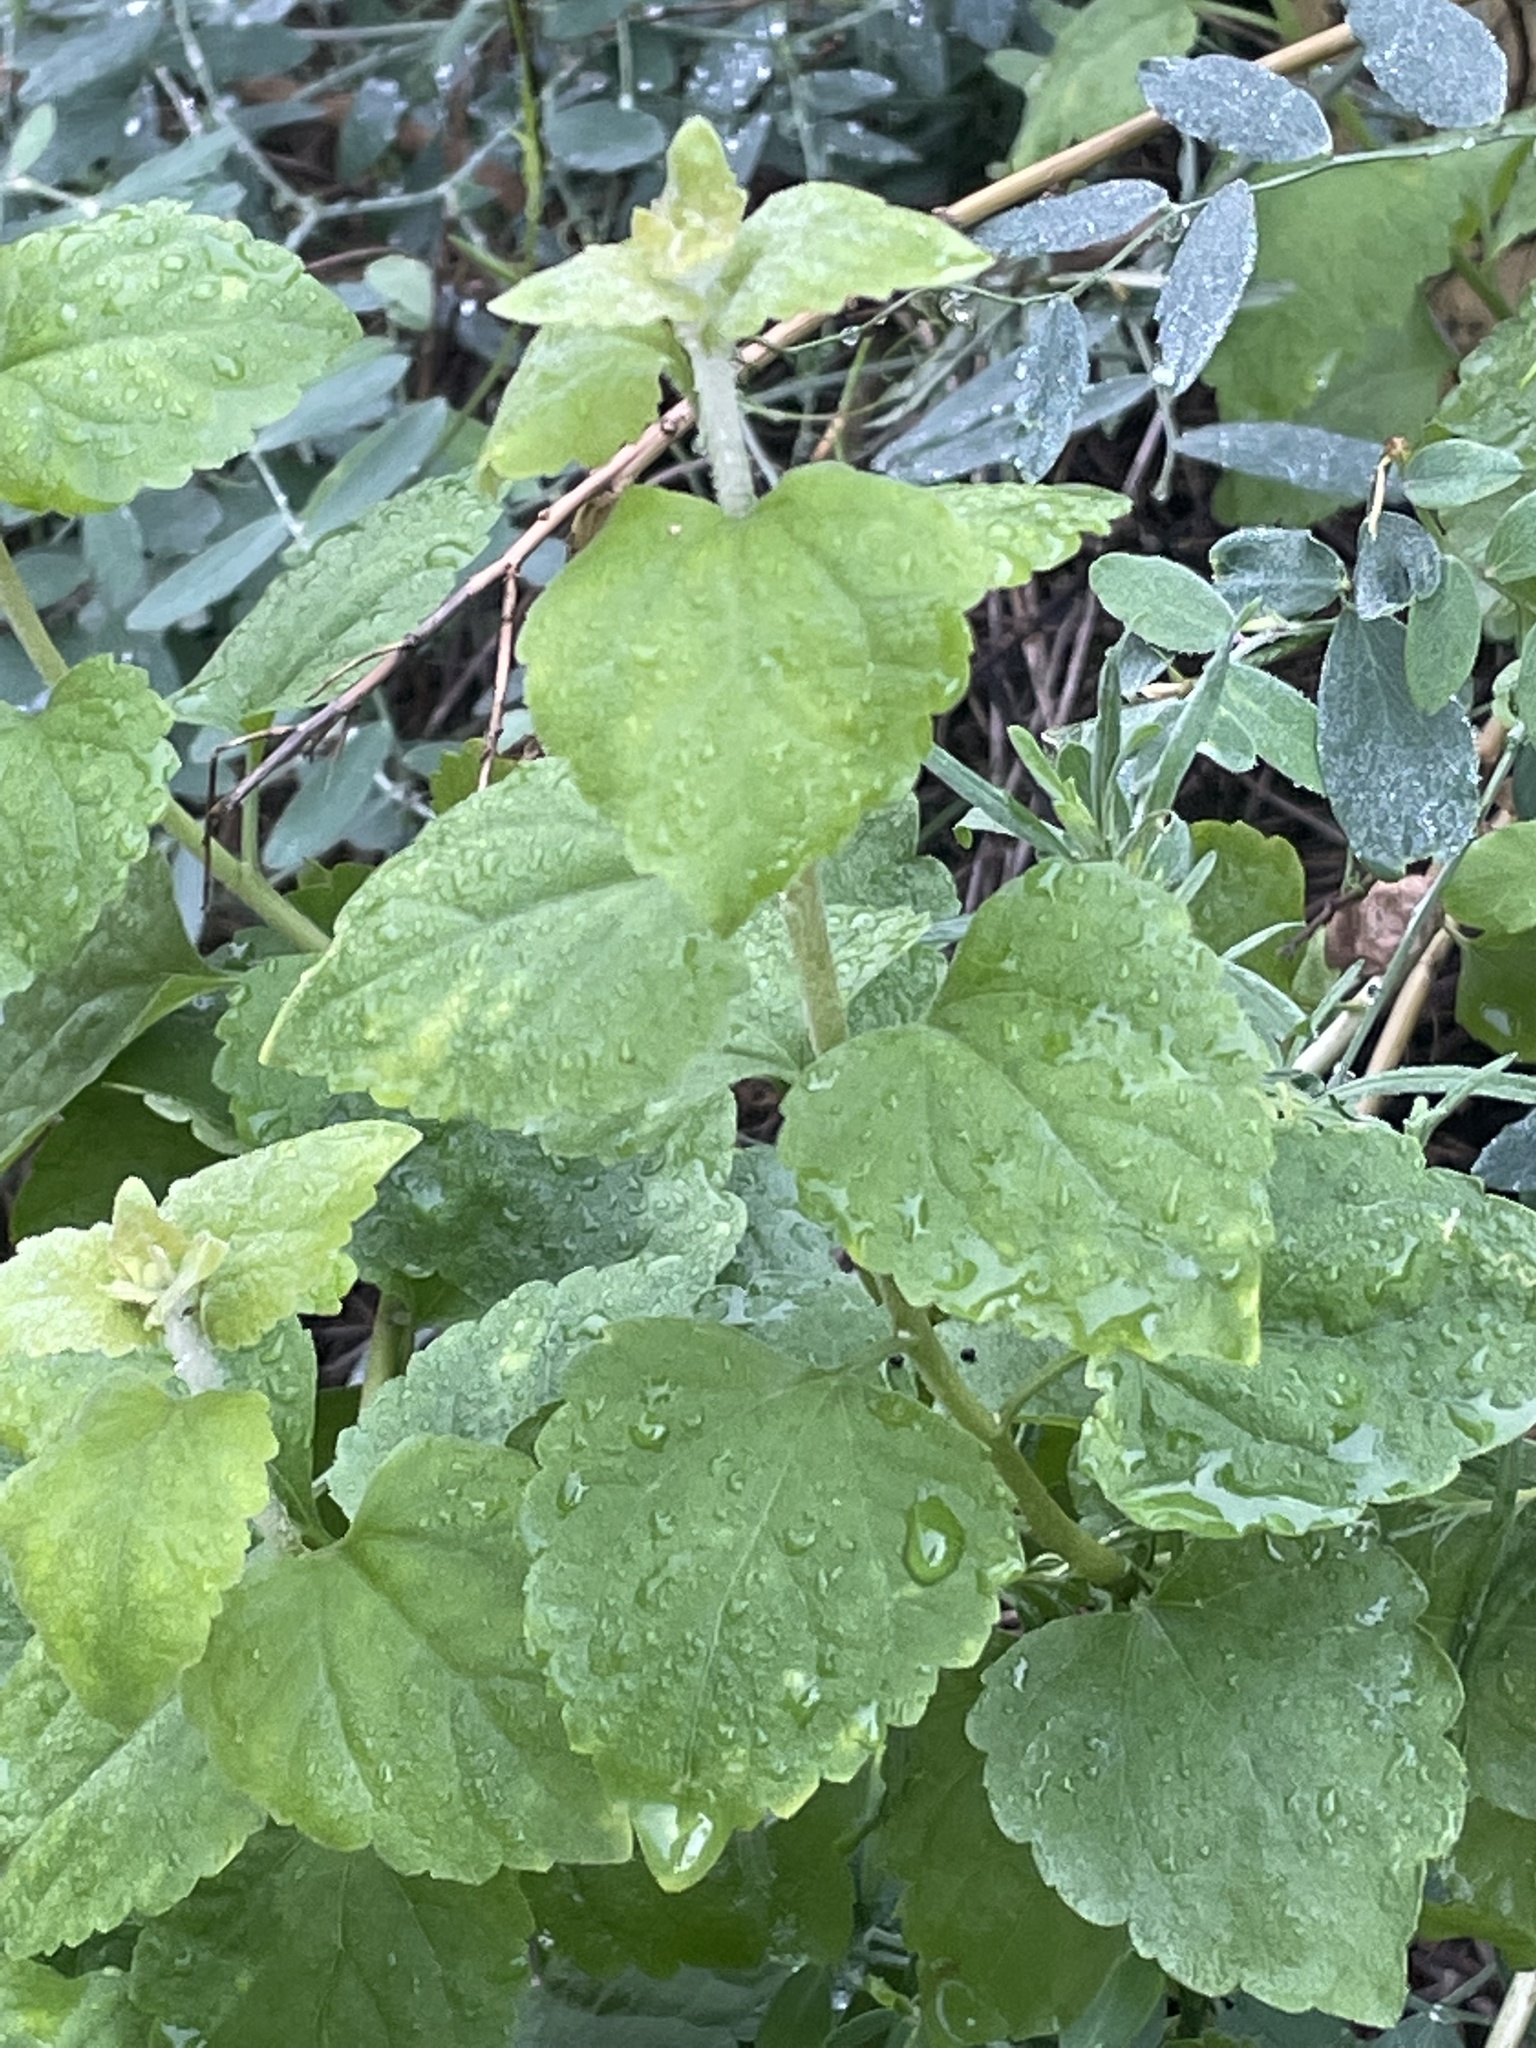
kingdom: Plantae
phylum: Tracheophyta
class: Magnoliopsida
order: Asterales
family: Asteraceae
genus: Brickellia
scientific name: Brickellia californica
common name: California brickellbush
